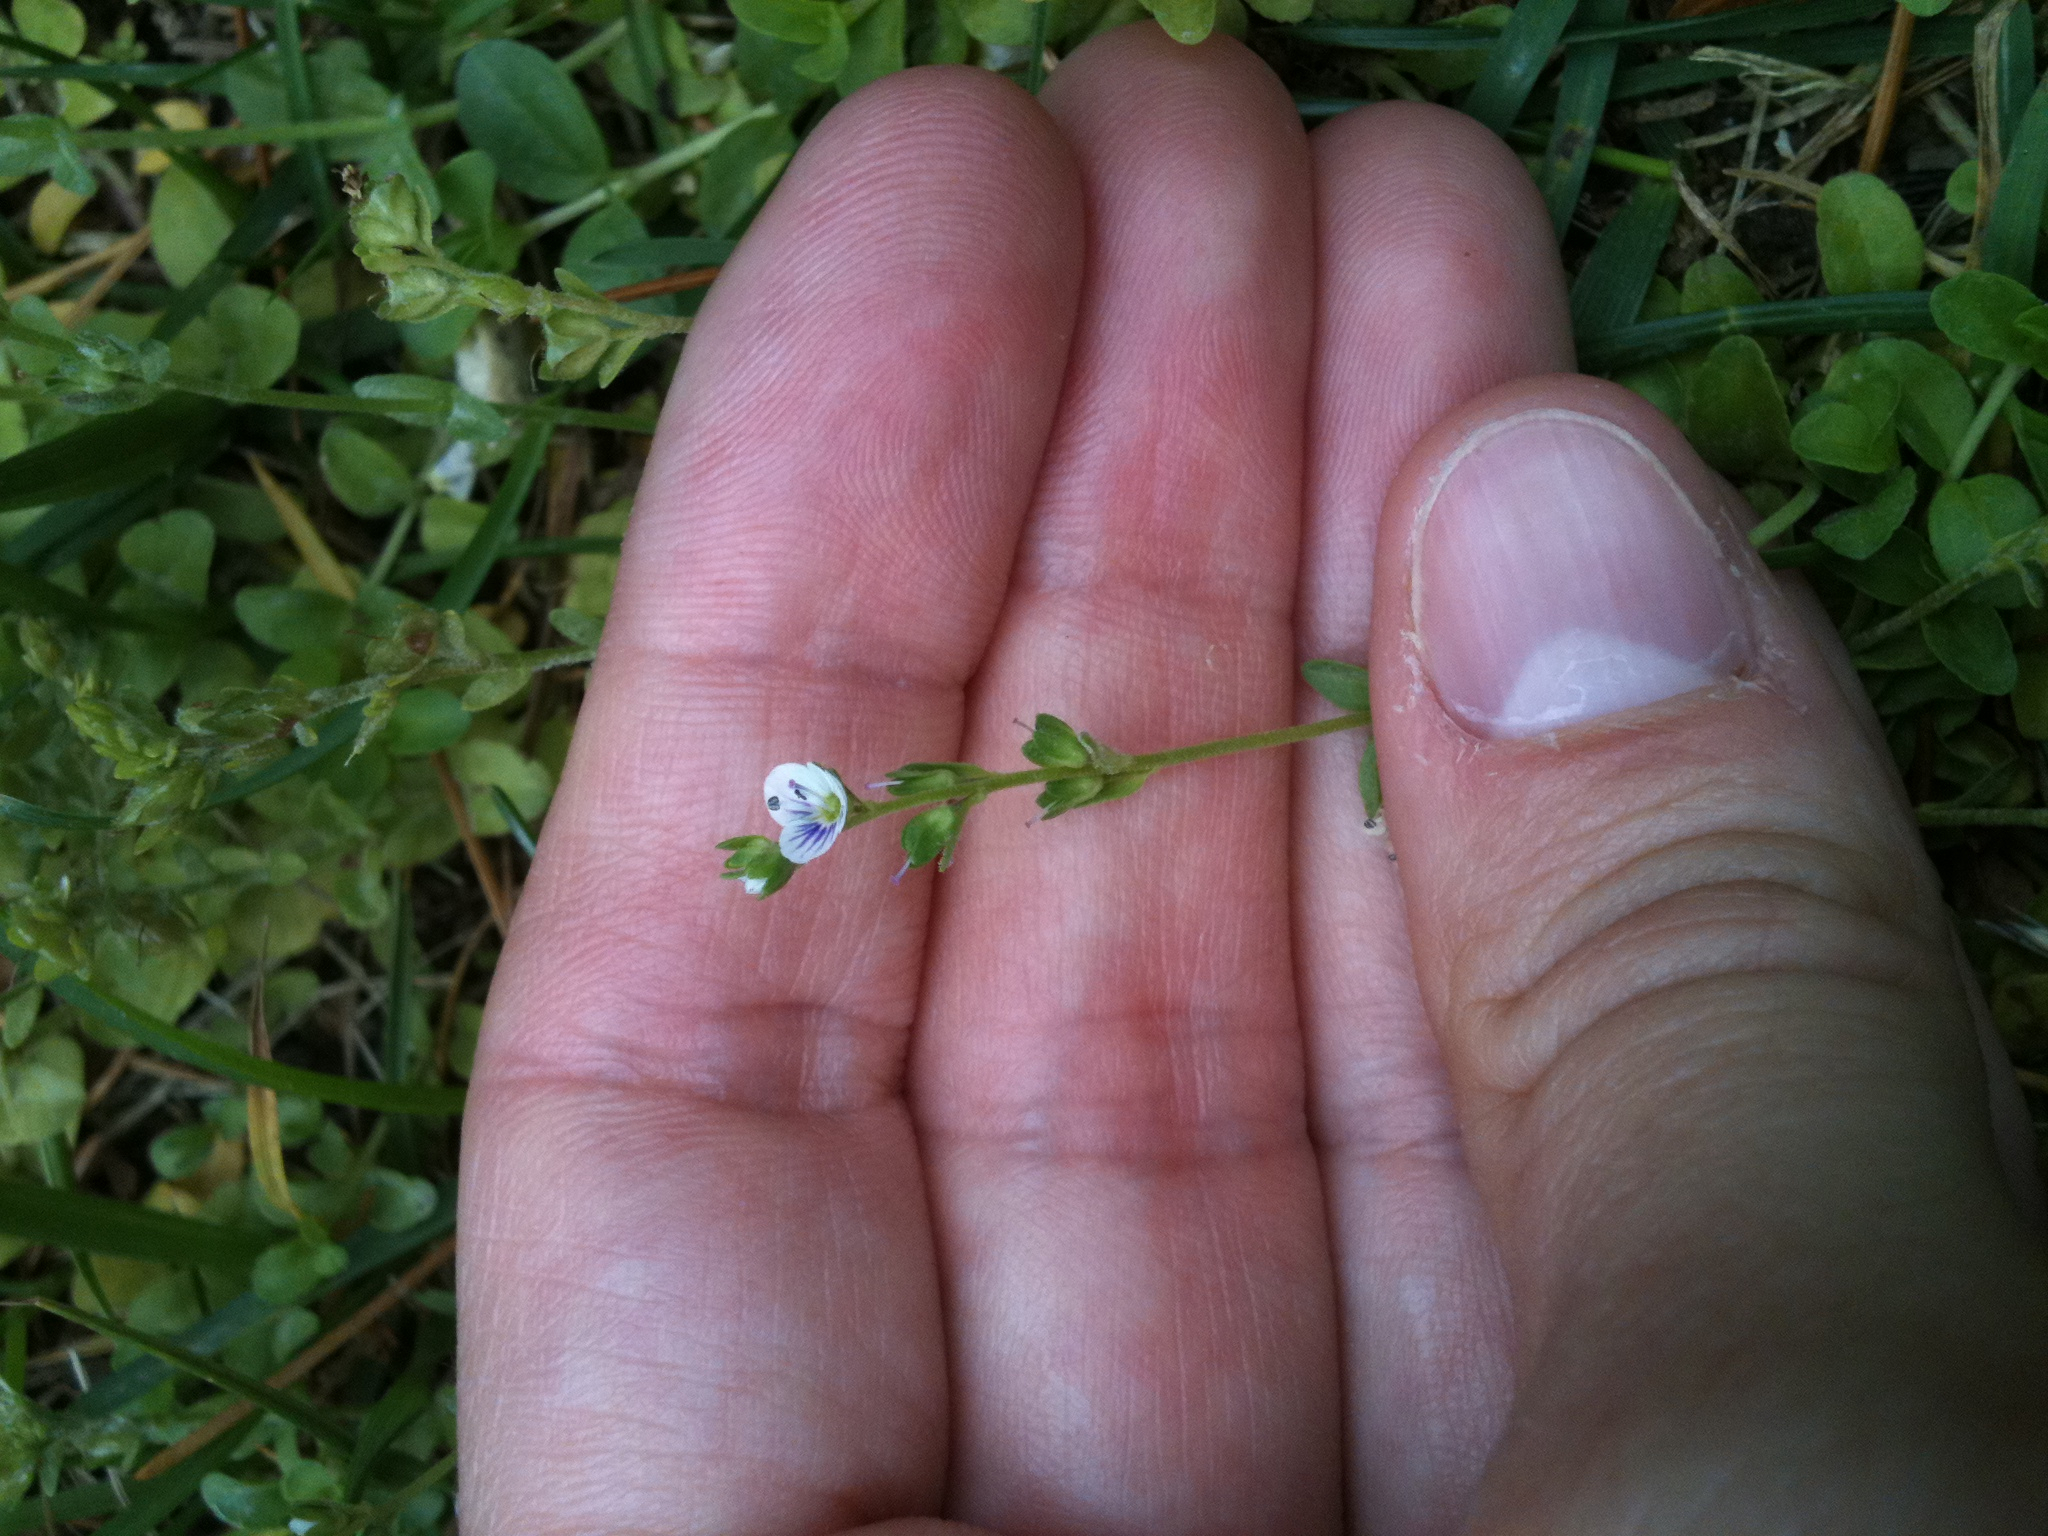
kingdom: Plantae
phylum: Tracheophyta
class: Magnoliopsida
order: Lamiales
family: Plantaginaceae
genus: Veronica
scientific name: Veronica serpyllifolia
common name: Thyme-leaved speedwell
